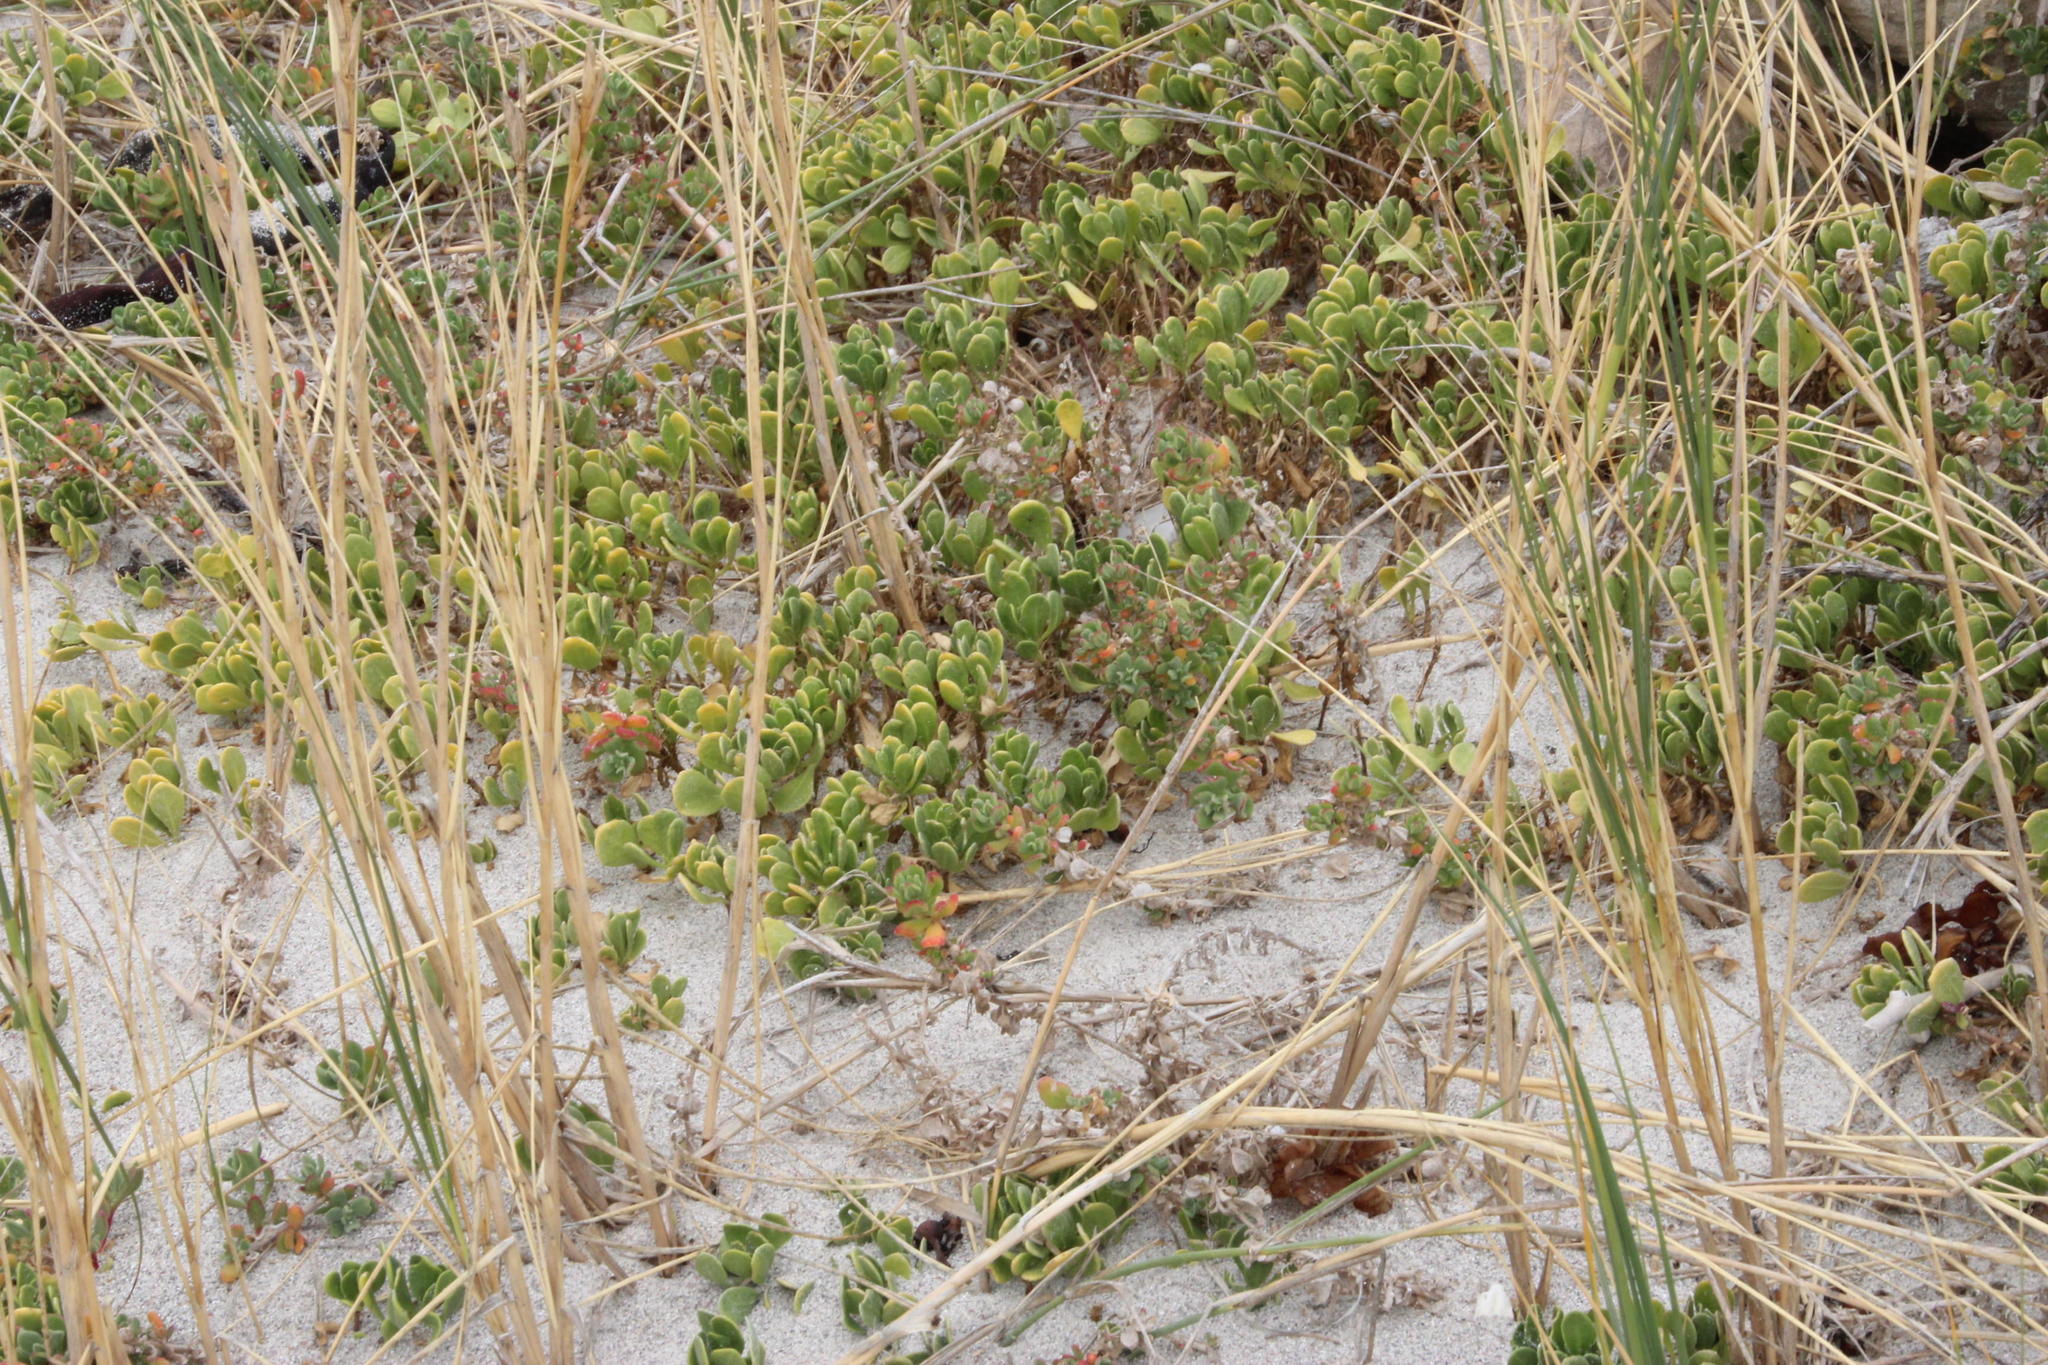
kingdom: Plantae
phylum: Tracheophyta
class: Liliopsida
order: Poales
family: Poaceae
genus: Thinopyrum
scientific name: Thinopyrum distichum
